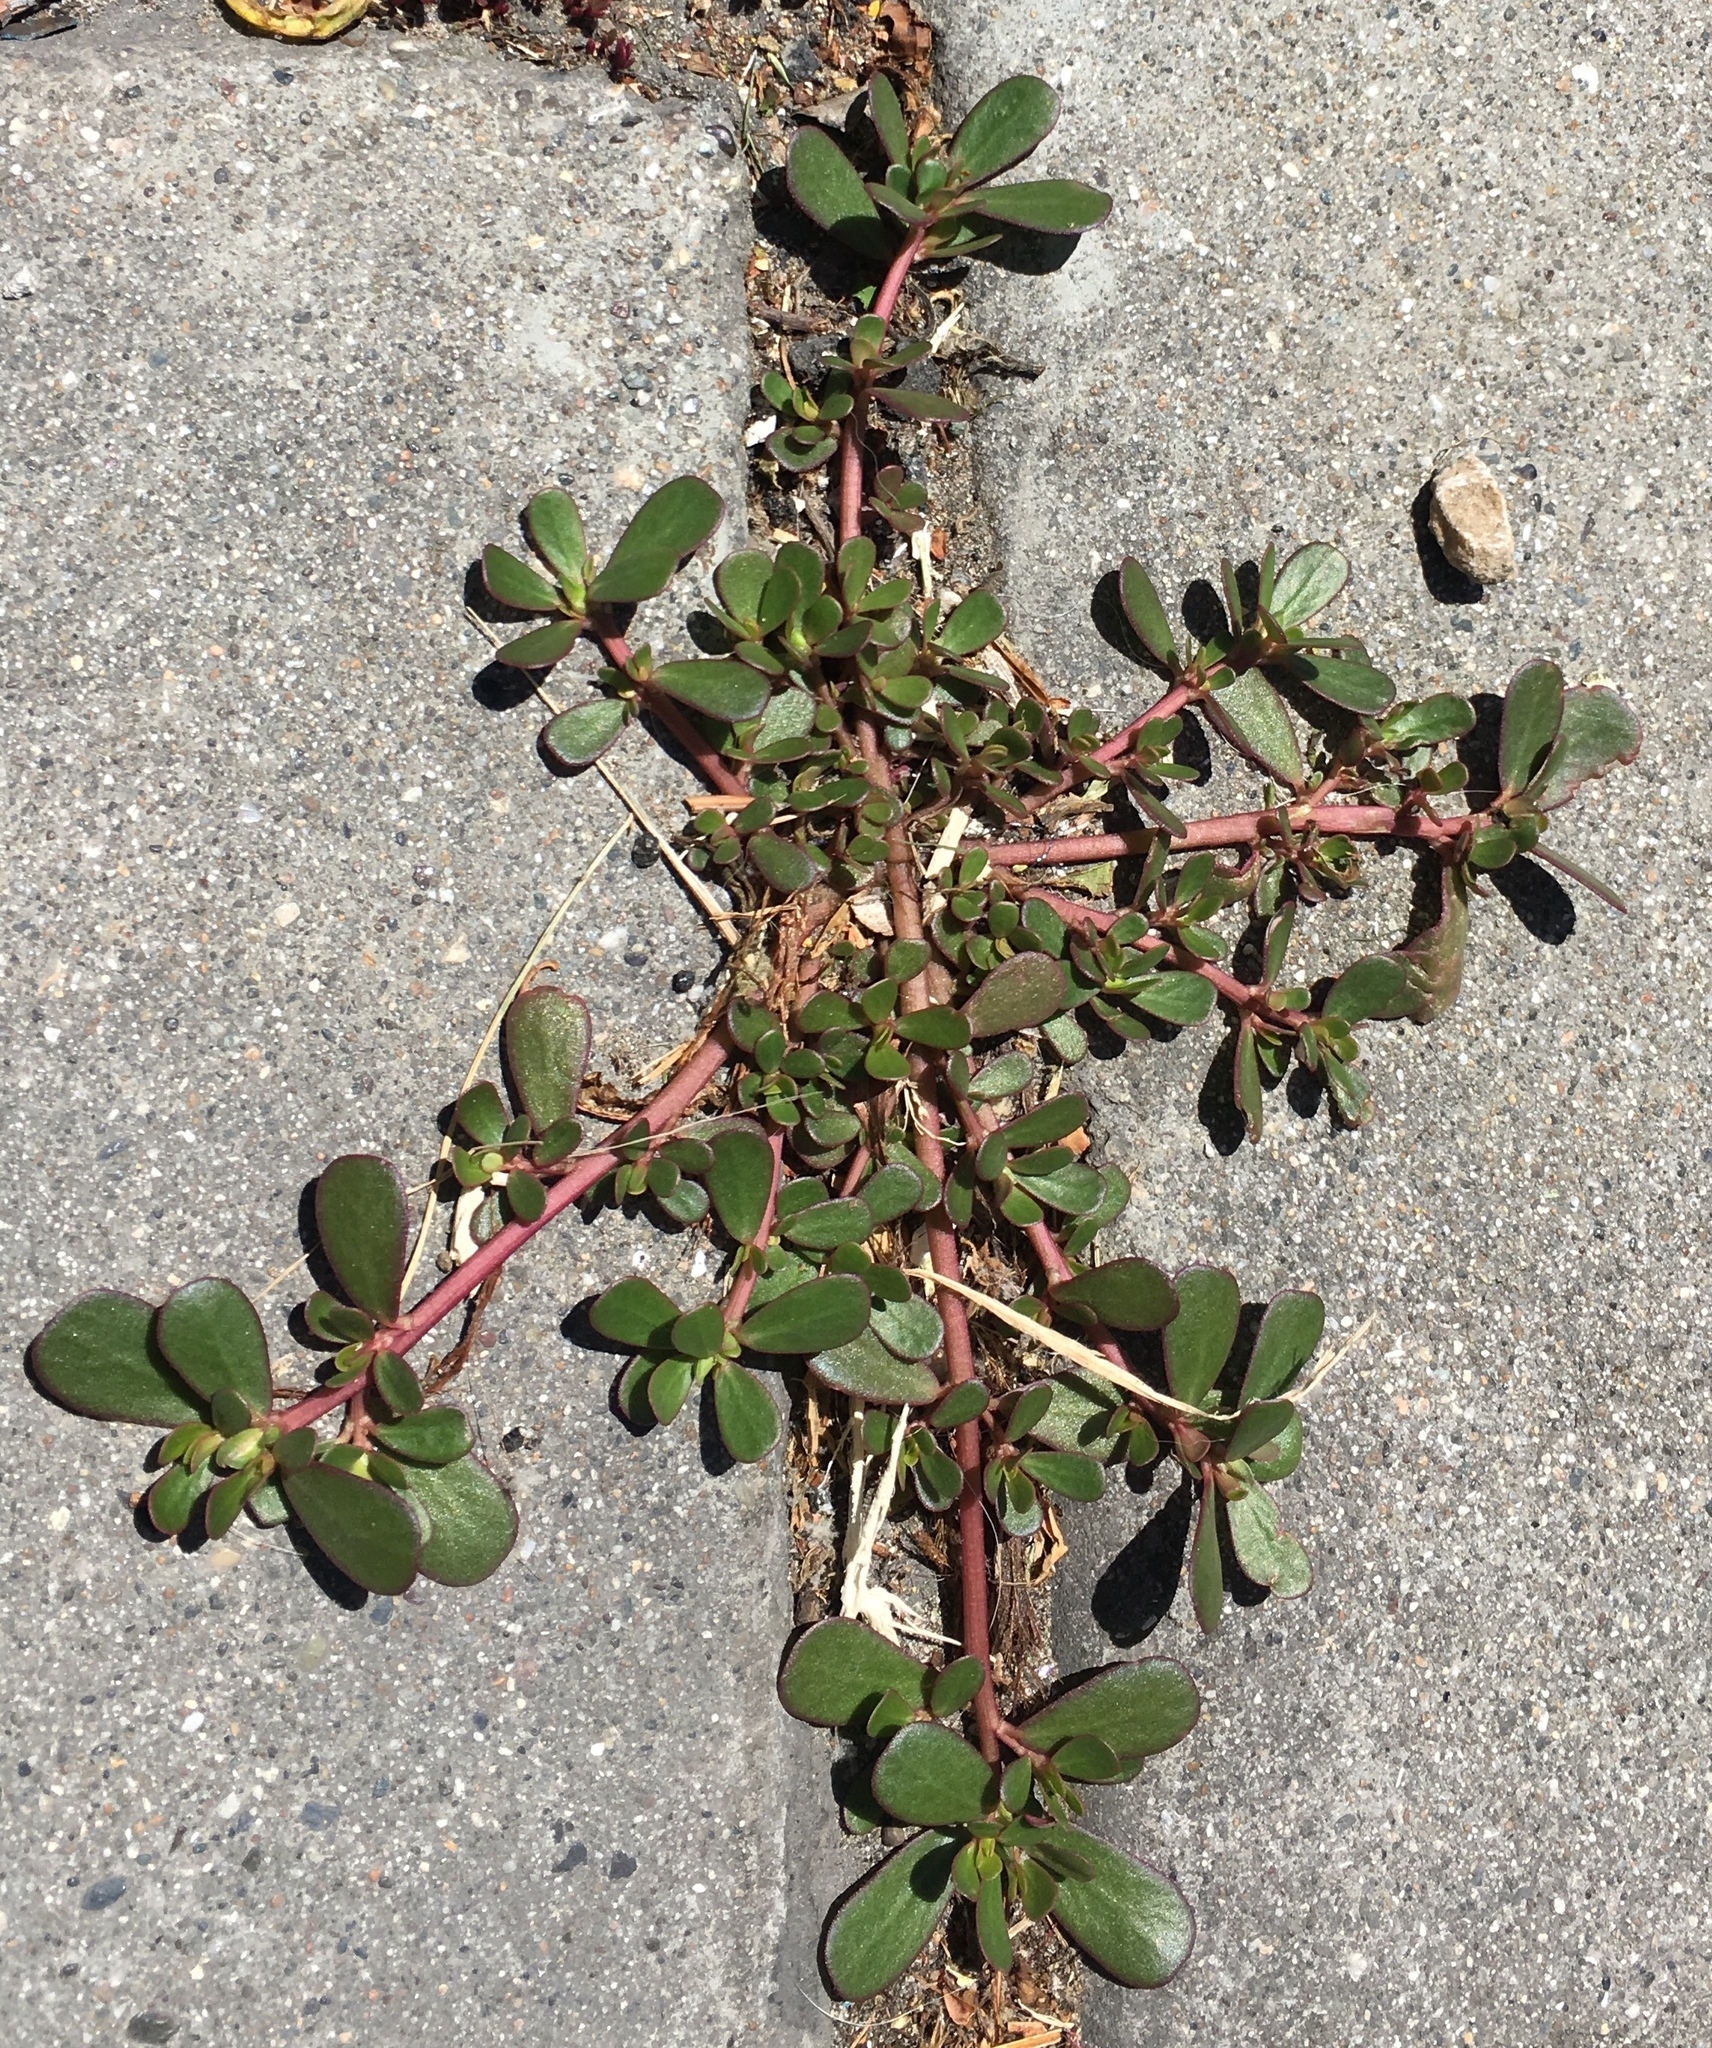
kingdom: Plantae
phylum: Tracheophyta
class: Magnoliopsida
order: Caryophyllales
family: Portulacaceae
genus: Portulaca
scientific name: Portulaca oleracea
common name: Common purslane
